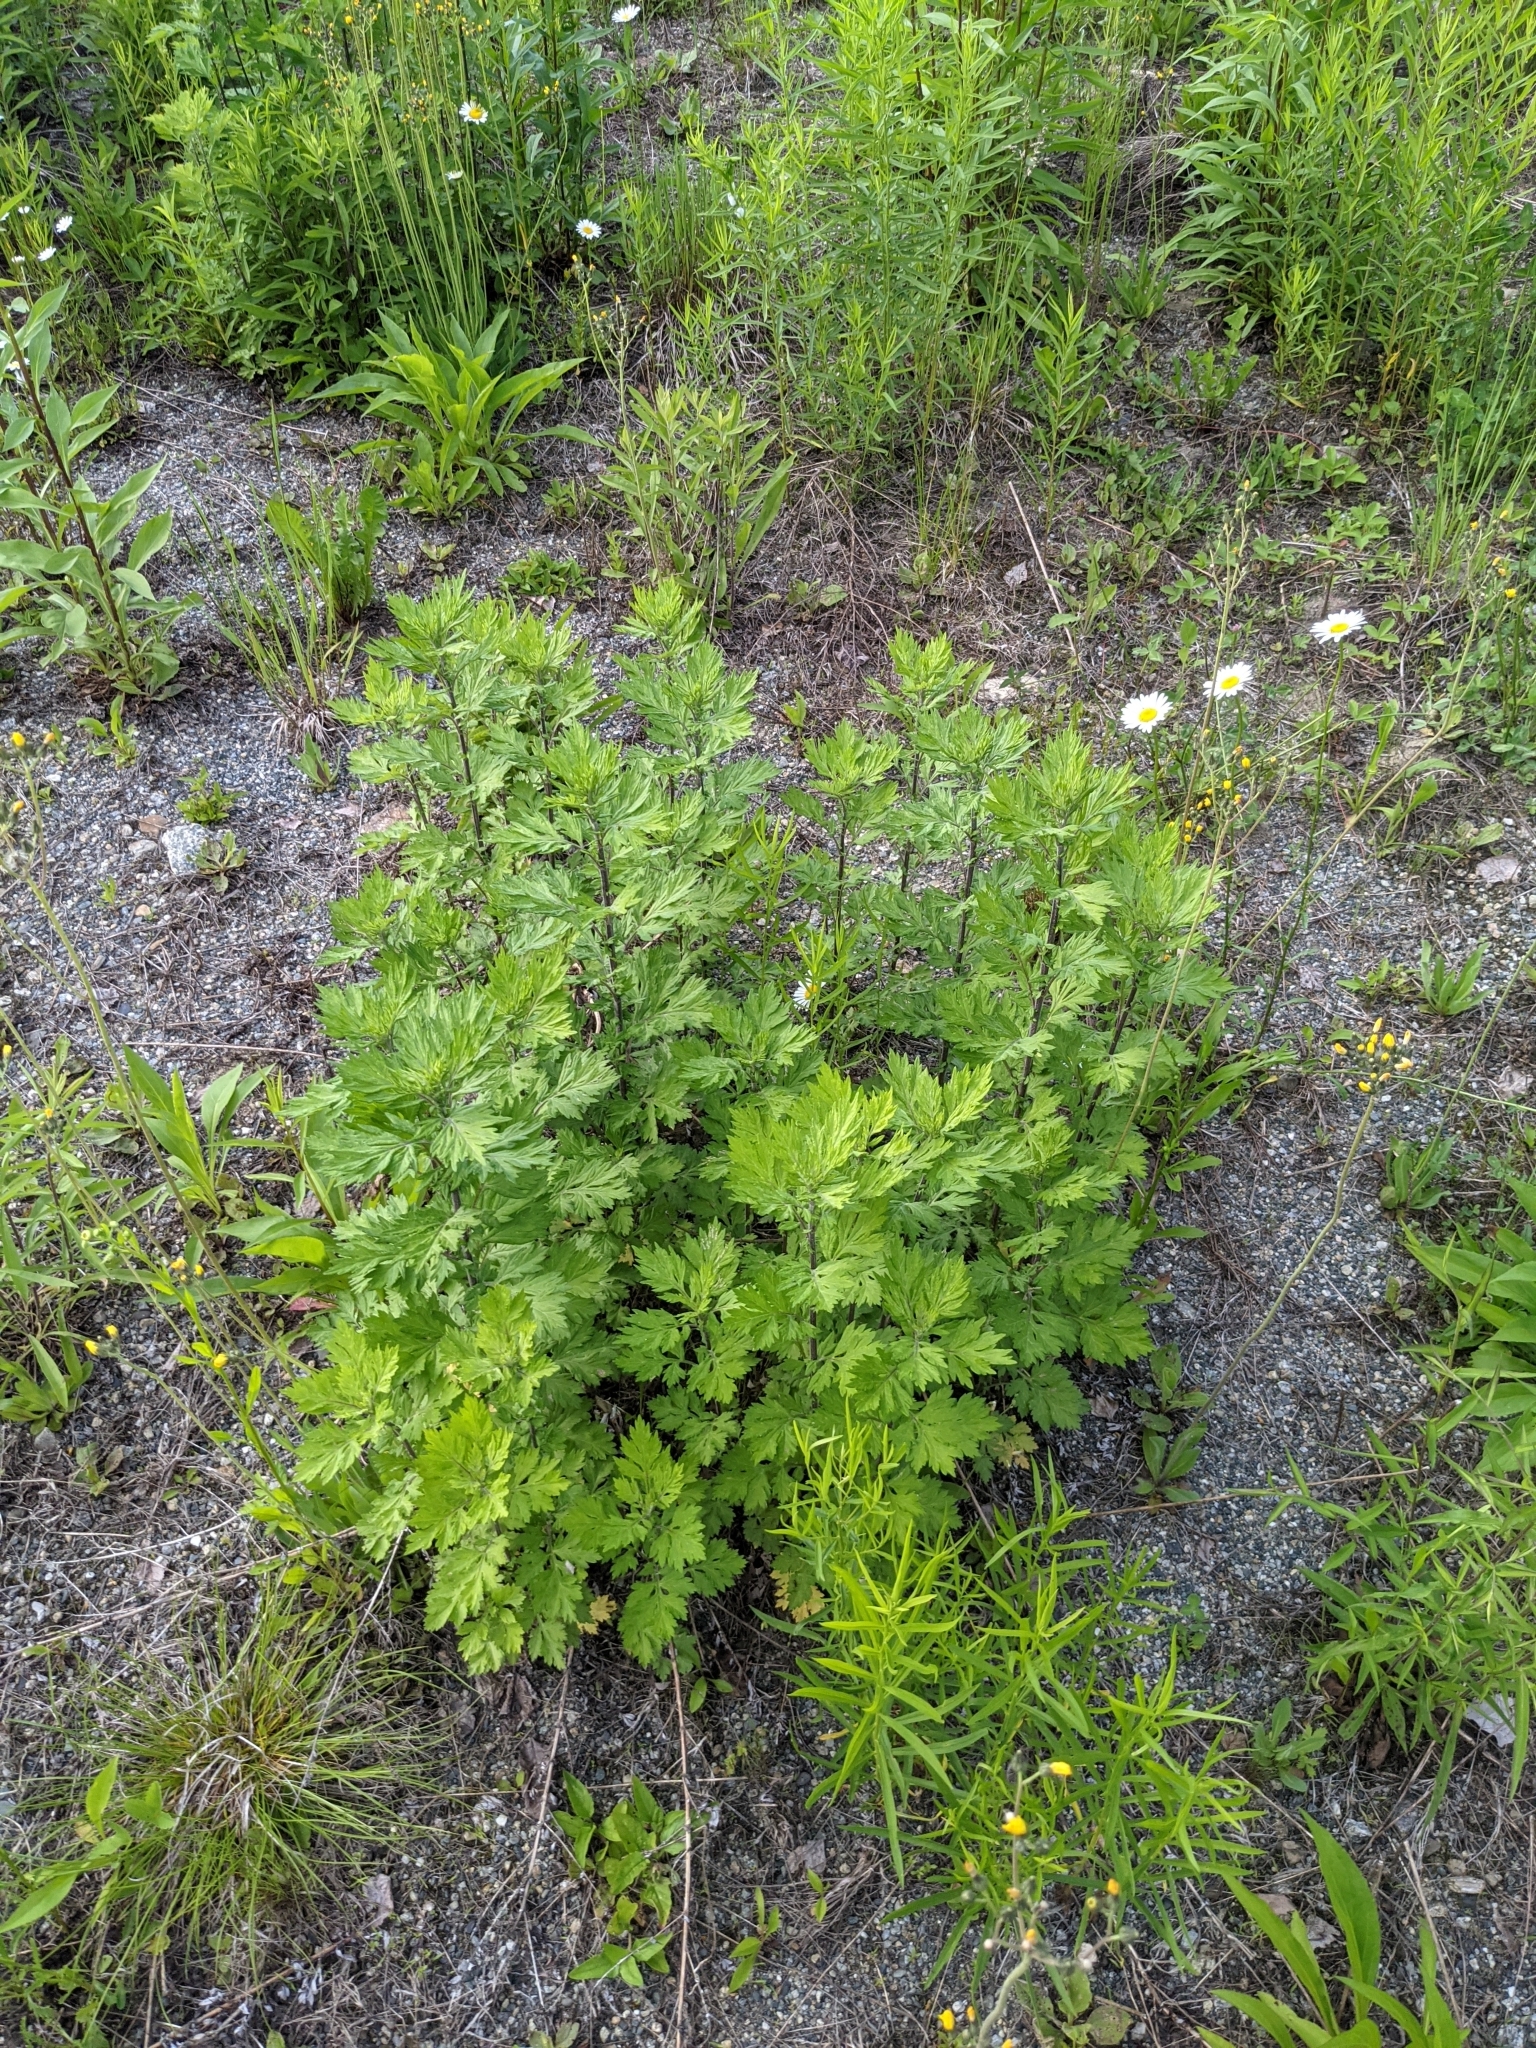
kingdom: Plantae
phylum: Tracheophyta
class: Magnoliopsida
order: Asterales
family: Asteraceae
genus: Artemisia
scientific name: Artemisia vulgaris
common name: Mugwort
